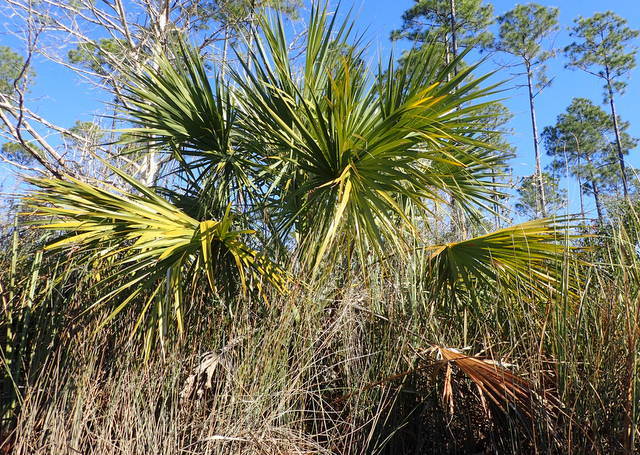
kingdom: Plantae
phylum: Tracheophyta
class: Liliopsida
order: Arecales
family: Arecaceae
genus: Sabal
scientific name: Sabal palmetto
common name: Blue palmetto
